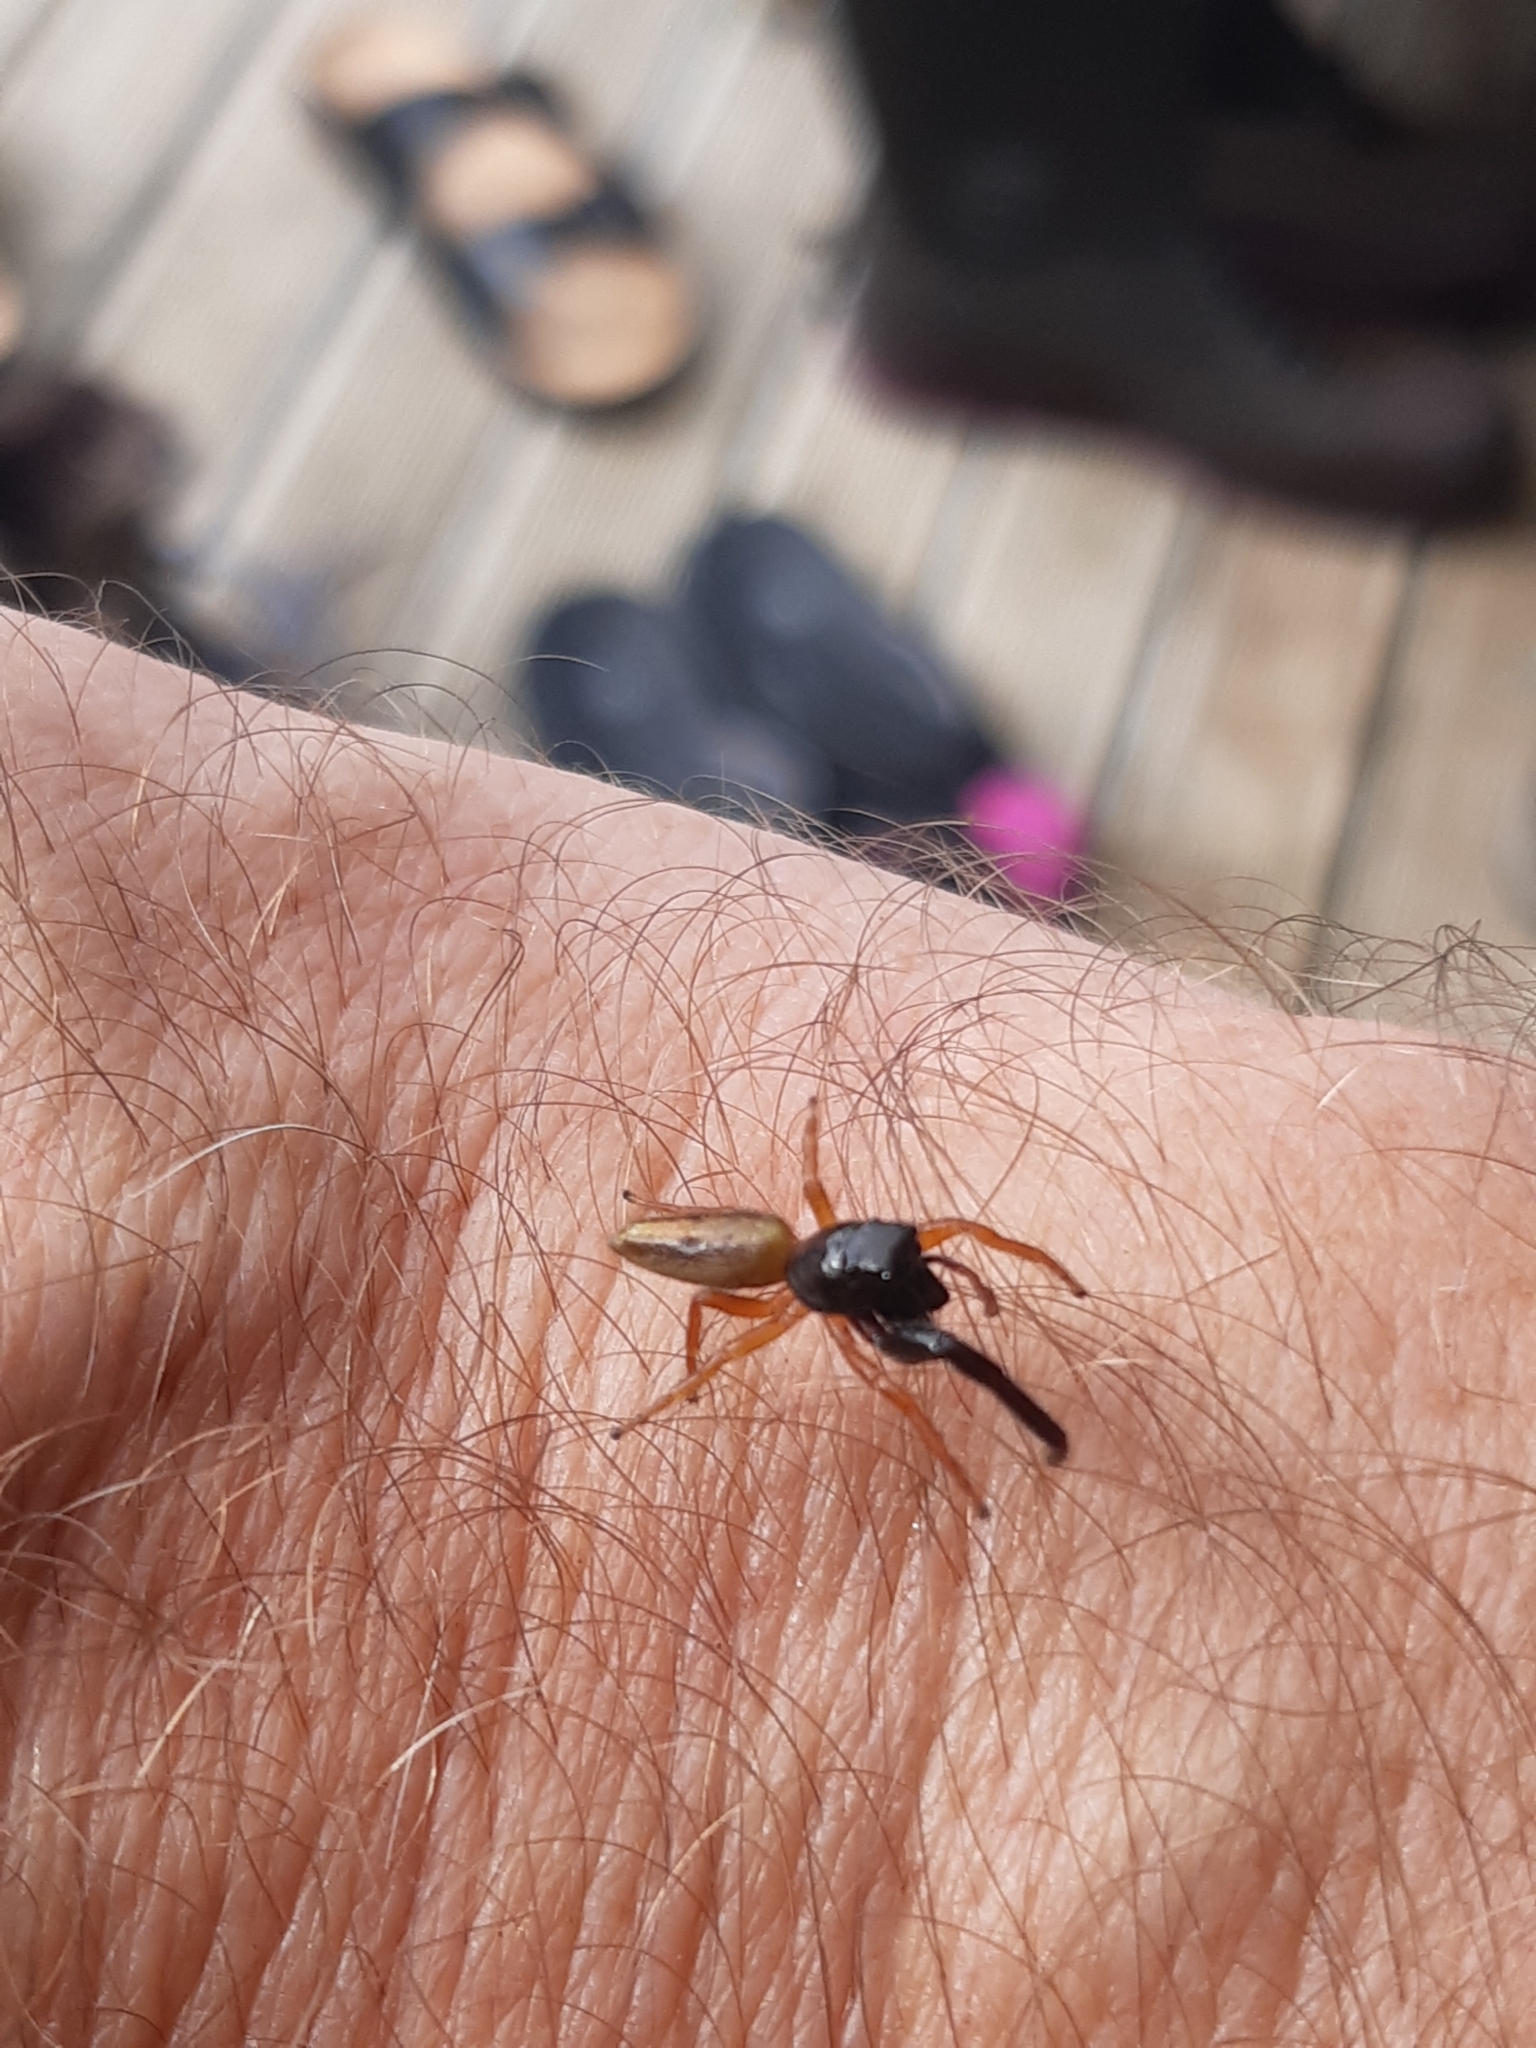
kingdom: Animalia
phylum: Arthropoda
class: Arachnida
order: Araneae
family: Salticidae
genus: Trite
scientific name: Trite planiceps
